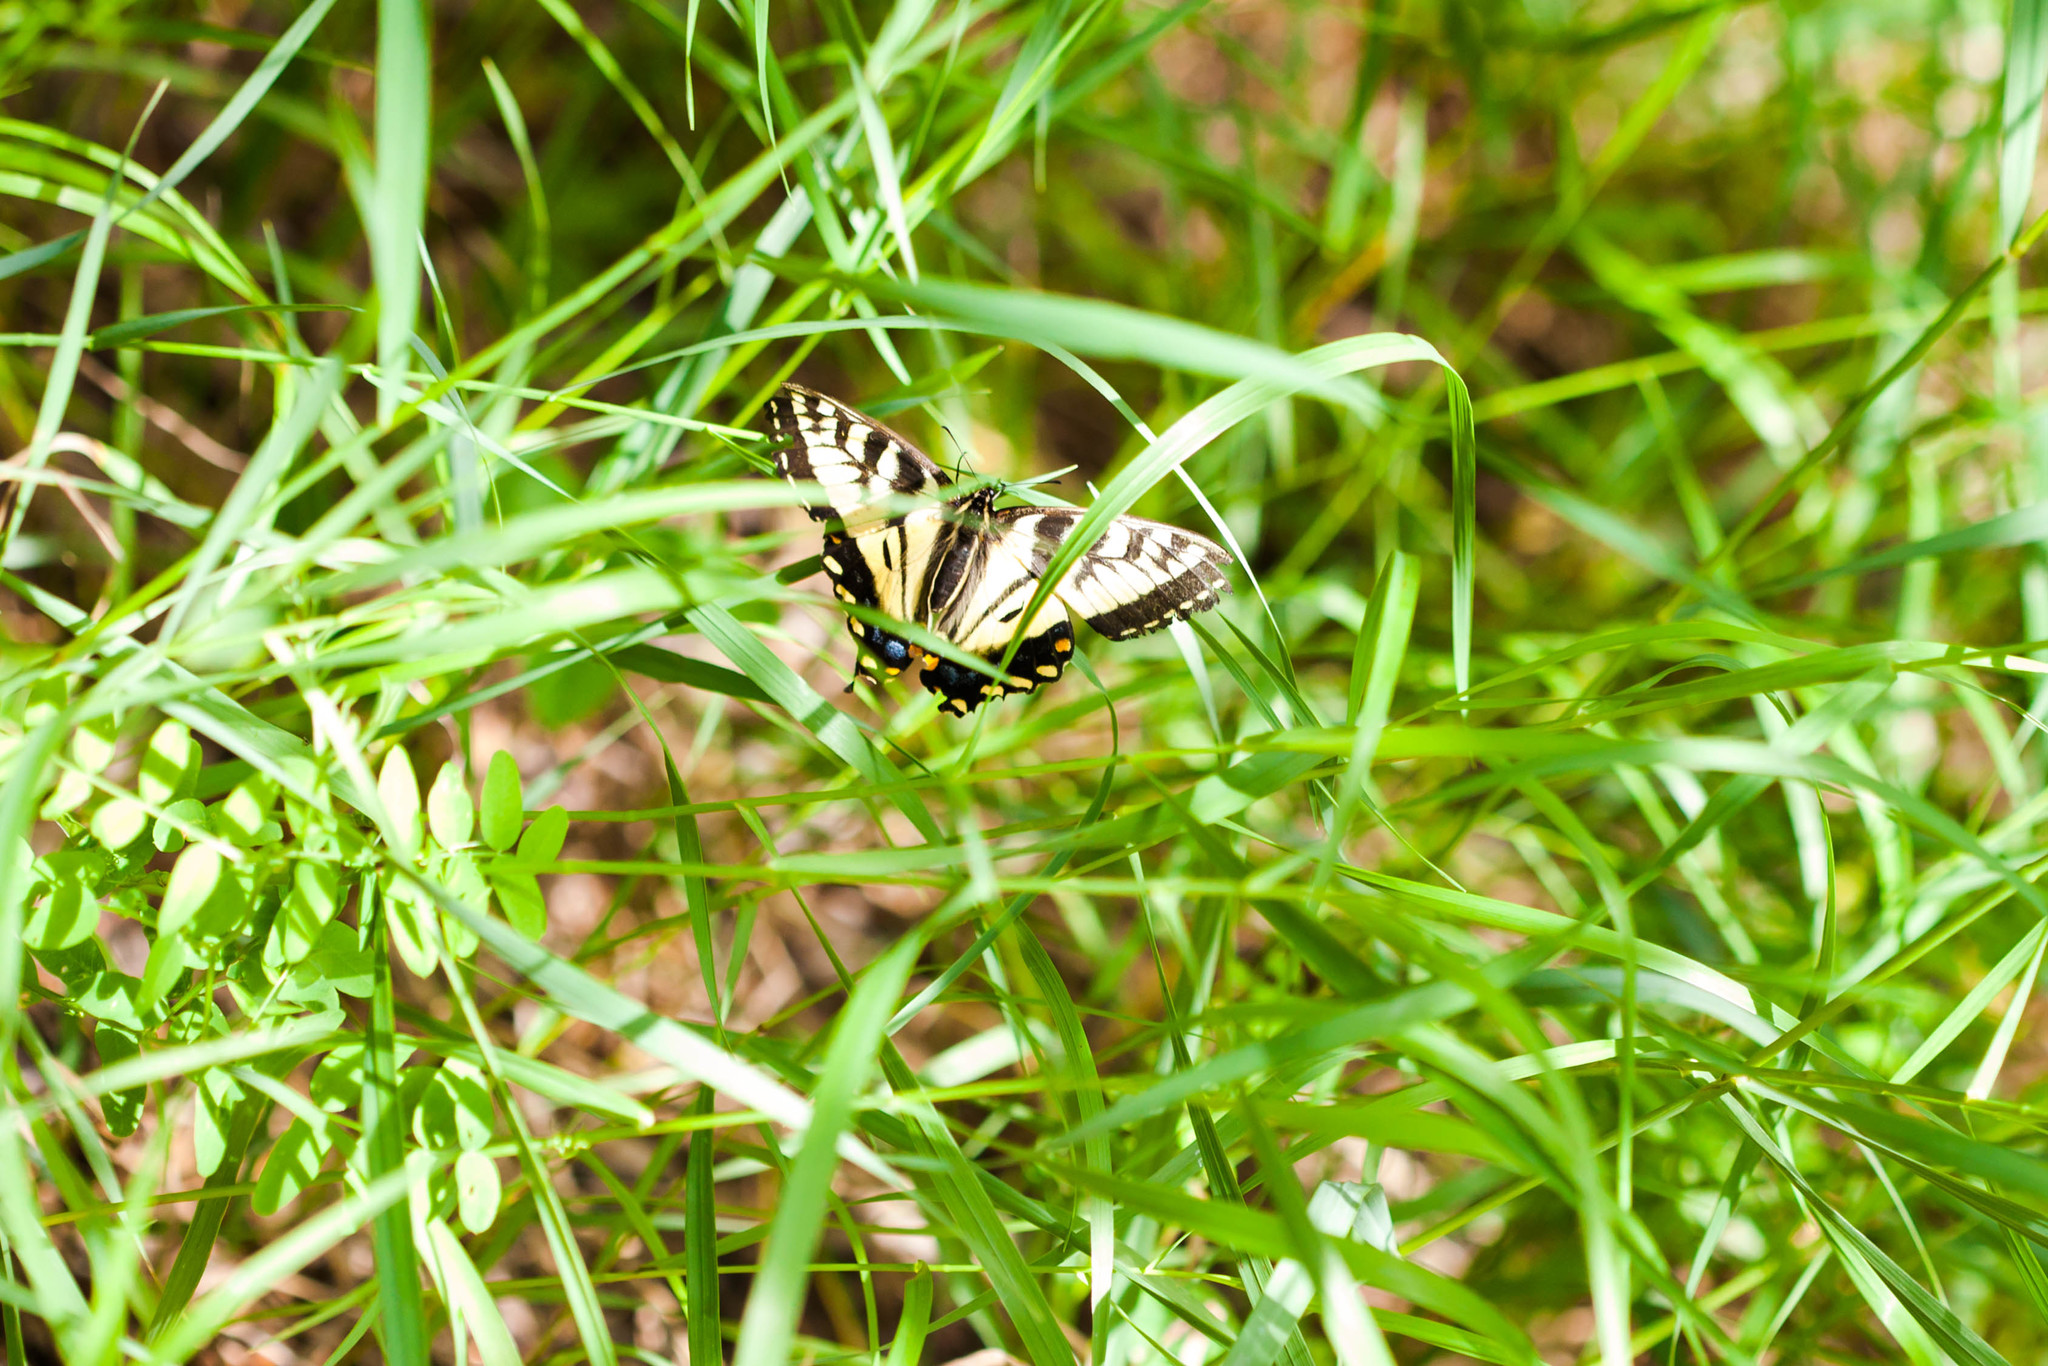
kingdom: Animalia
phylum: Arthropoda
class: Insecta
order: Lepidoptera
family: Papilionidae
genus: Papilio
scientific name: Papilio canadensis
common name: Canadian tiger swallowtail
